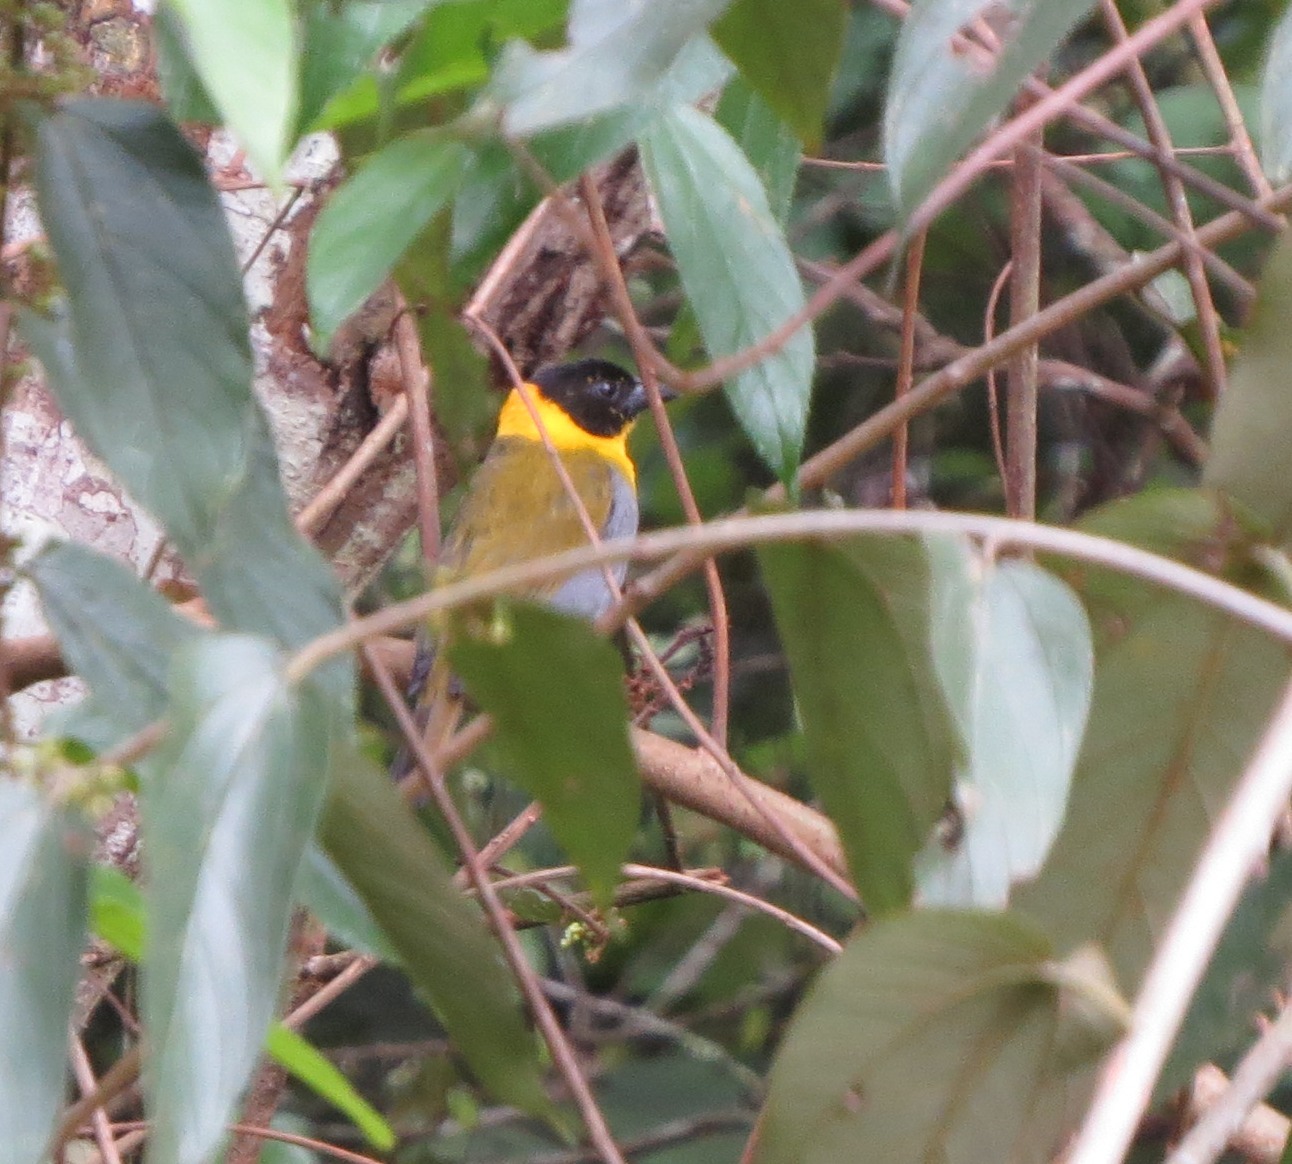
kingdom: Animalia
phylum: Chordata
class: Aves
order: Passeriformes
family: Ploceidae
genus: Ploceus
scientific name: Ploceus nelicourvi
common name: Nelicourvi weaver
